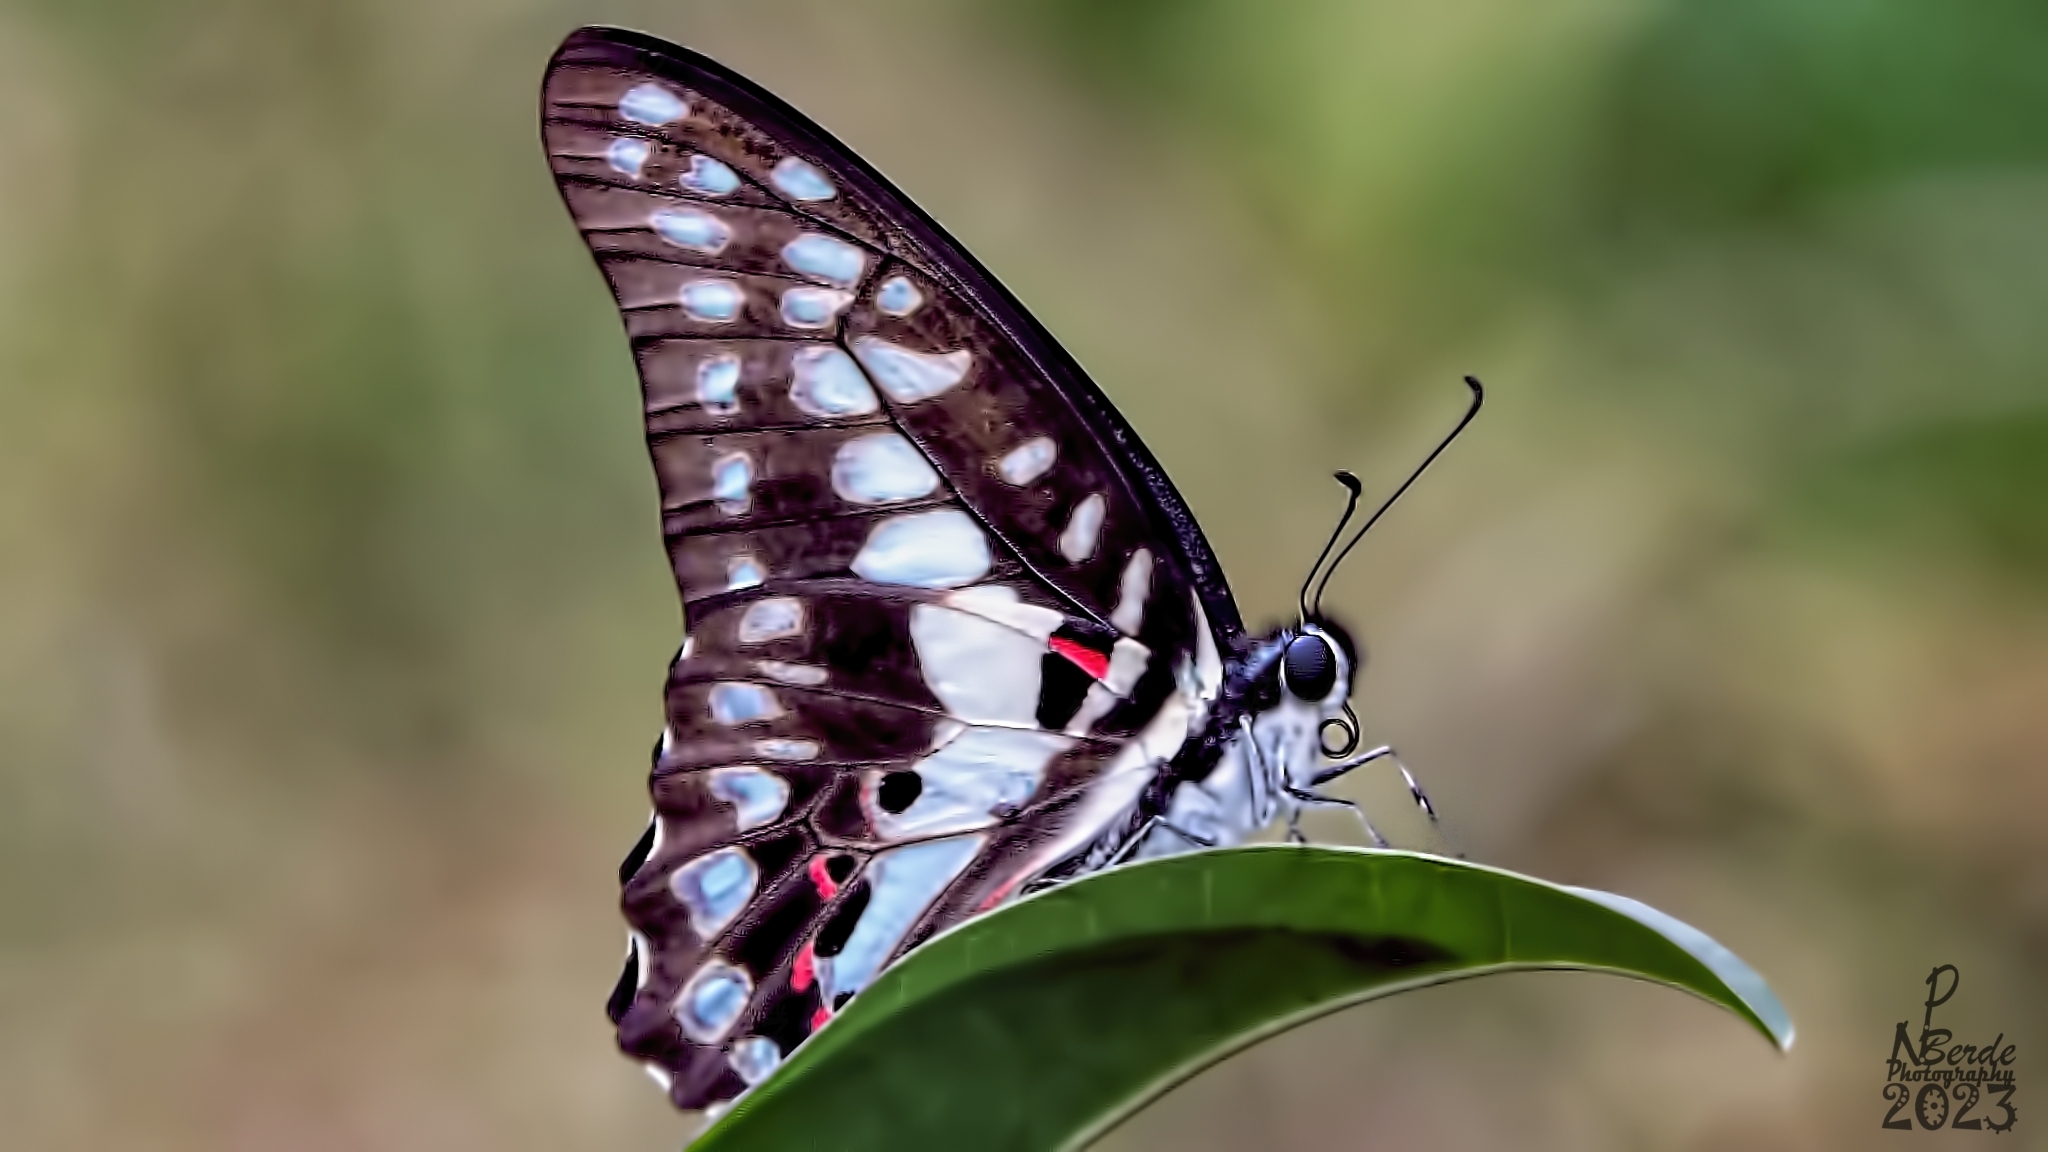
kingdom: Animalia
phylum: Arthropoda
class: Insecta
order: Lepidoptera
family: Papilionidae
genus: Graphium
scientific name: Graphium doson
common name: Common jay
